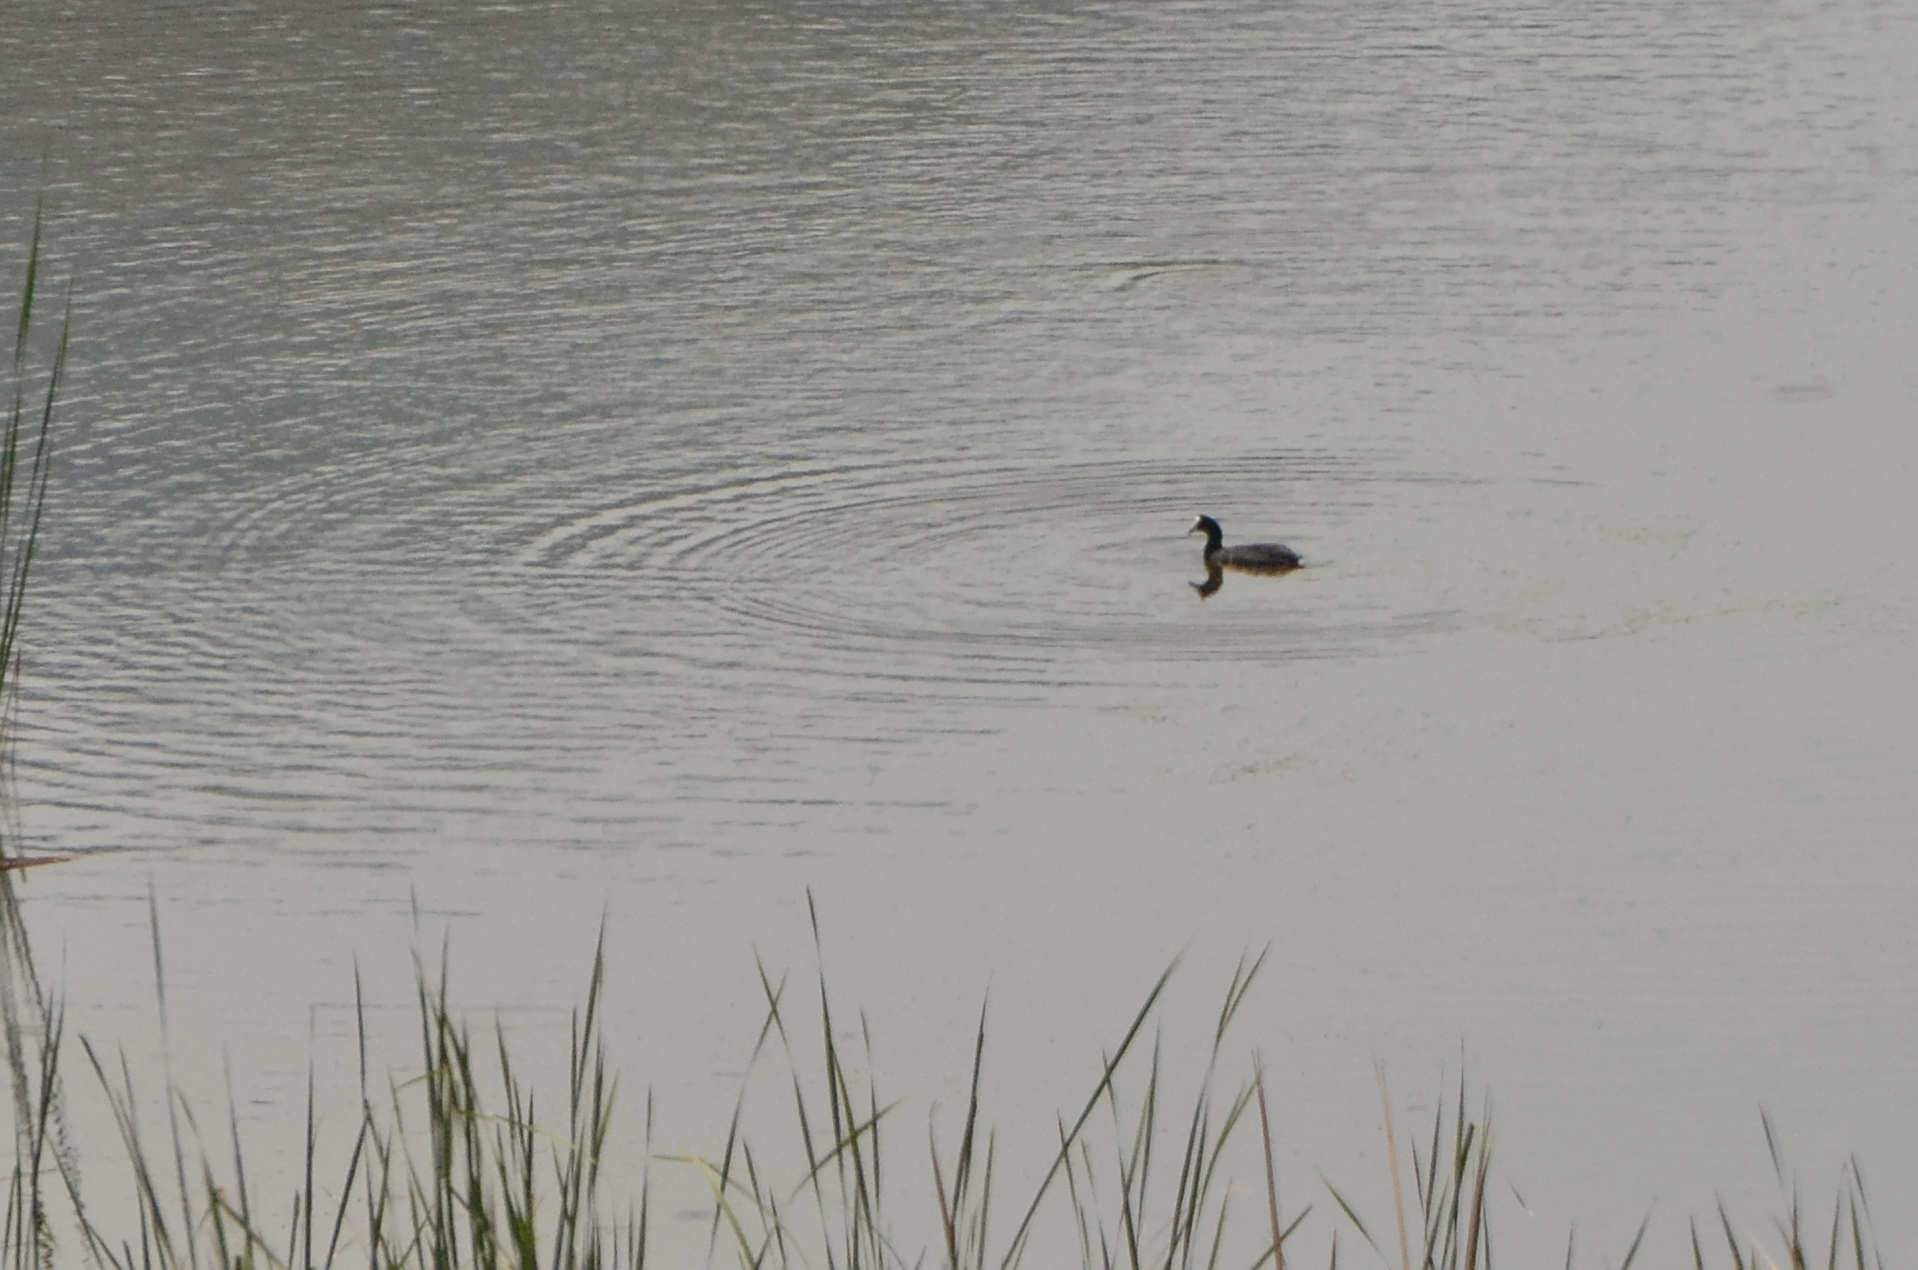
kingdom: Animalia
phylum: Chordata
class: Aves
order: Gruiformes
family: Rallidae
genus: Fulica
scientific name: Fulica cristata
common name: Red-knobbed coot
